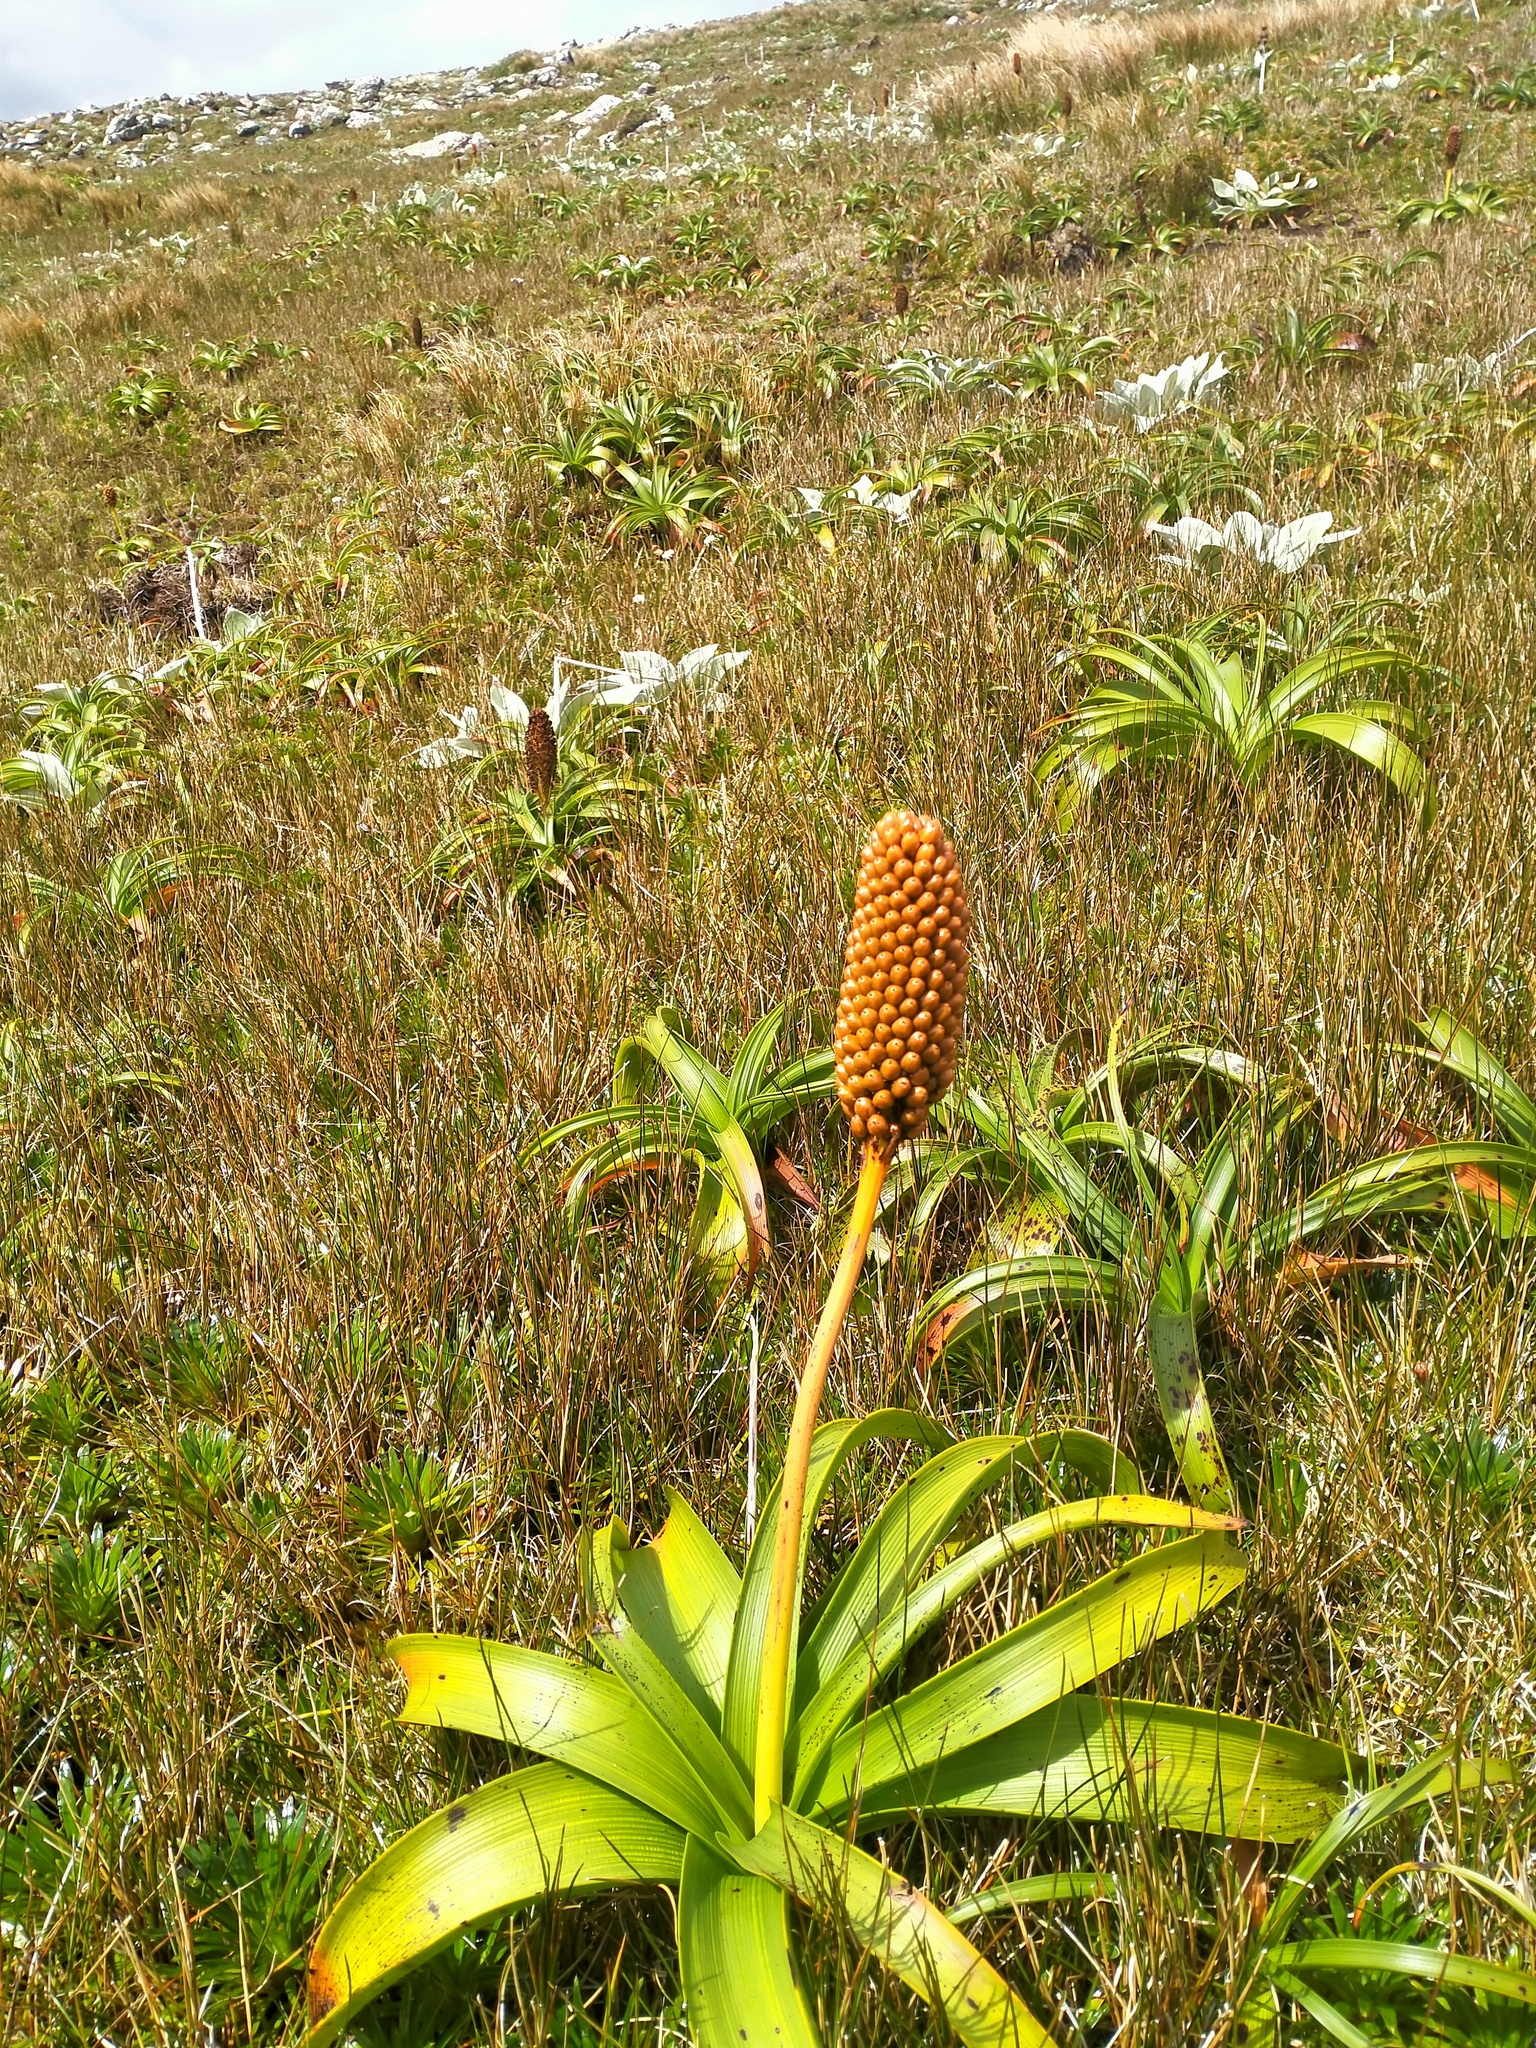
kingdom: Plantae
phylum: Tracheophyta
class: Liliopsida
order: Asparagales
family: Asphodelaceae
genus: Bulbinella
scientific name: Bulbinella rossii
